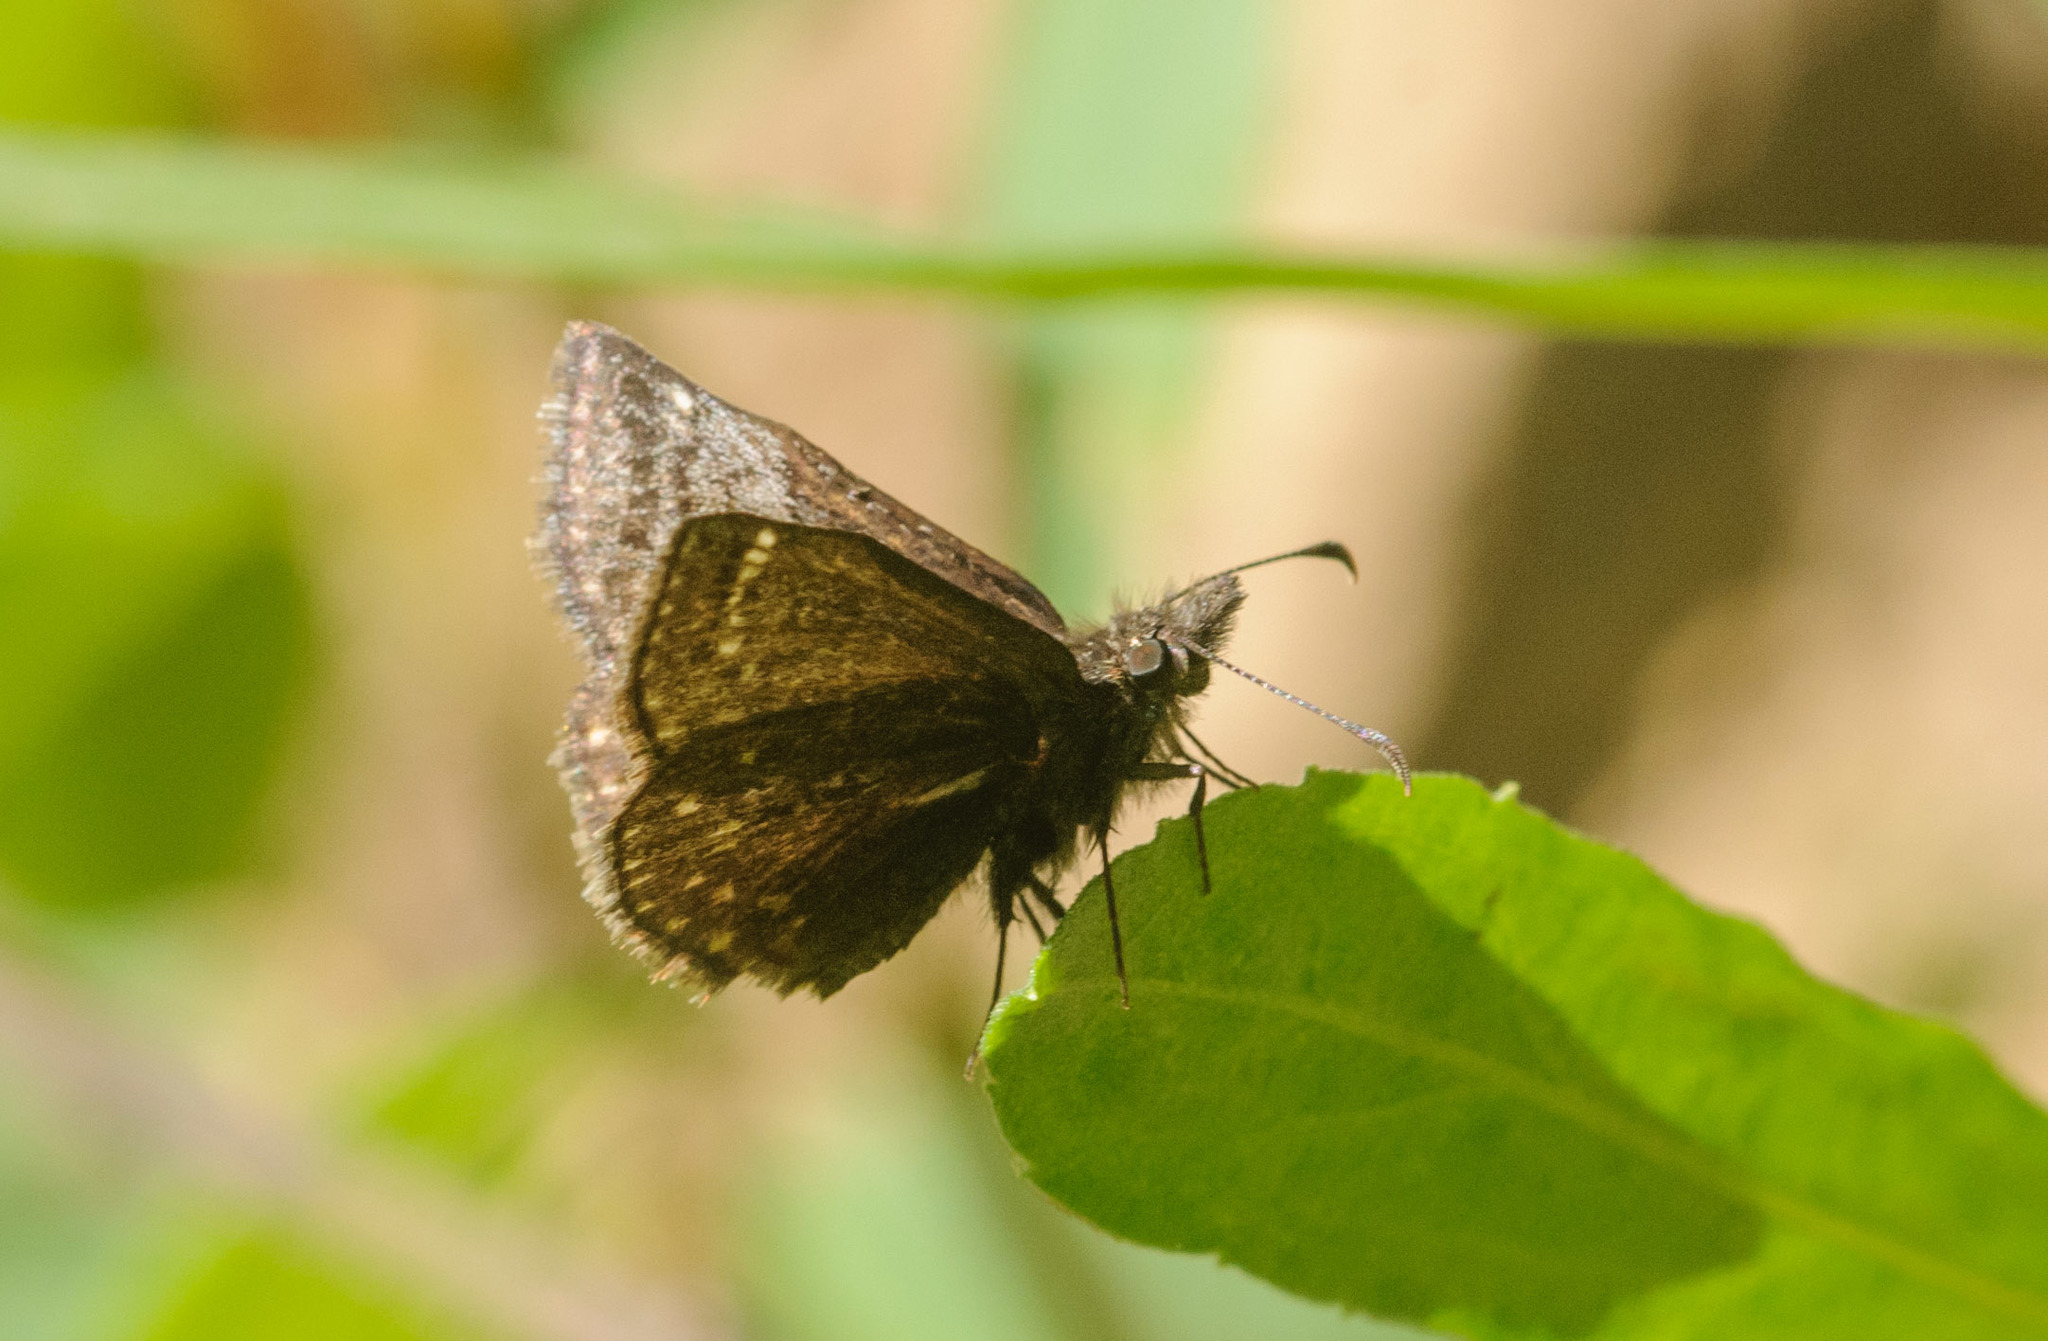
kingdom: Animalia
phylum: Arthropoda
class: Insecta
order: Lepidoptera
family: Hesperiidae
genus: Erynnis
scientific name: Erynnis icelus
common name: Dreamy duskywing
